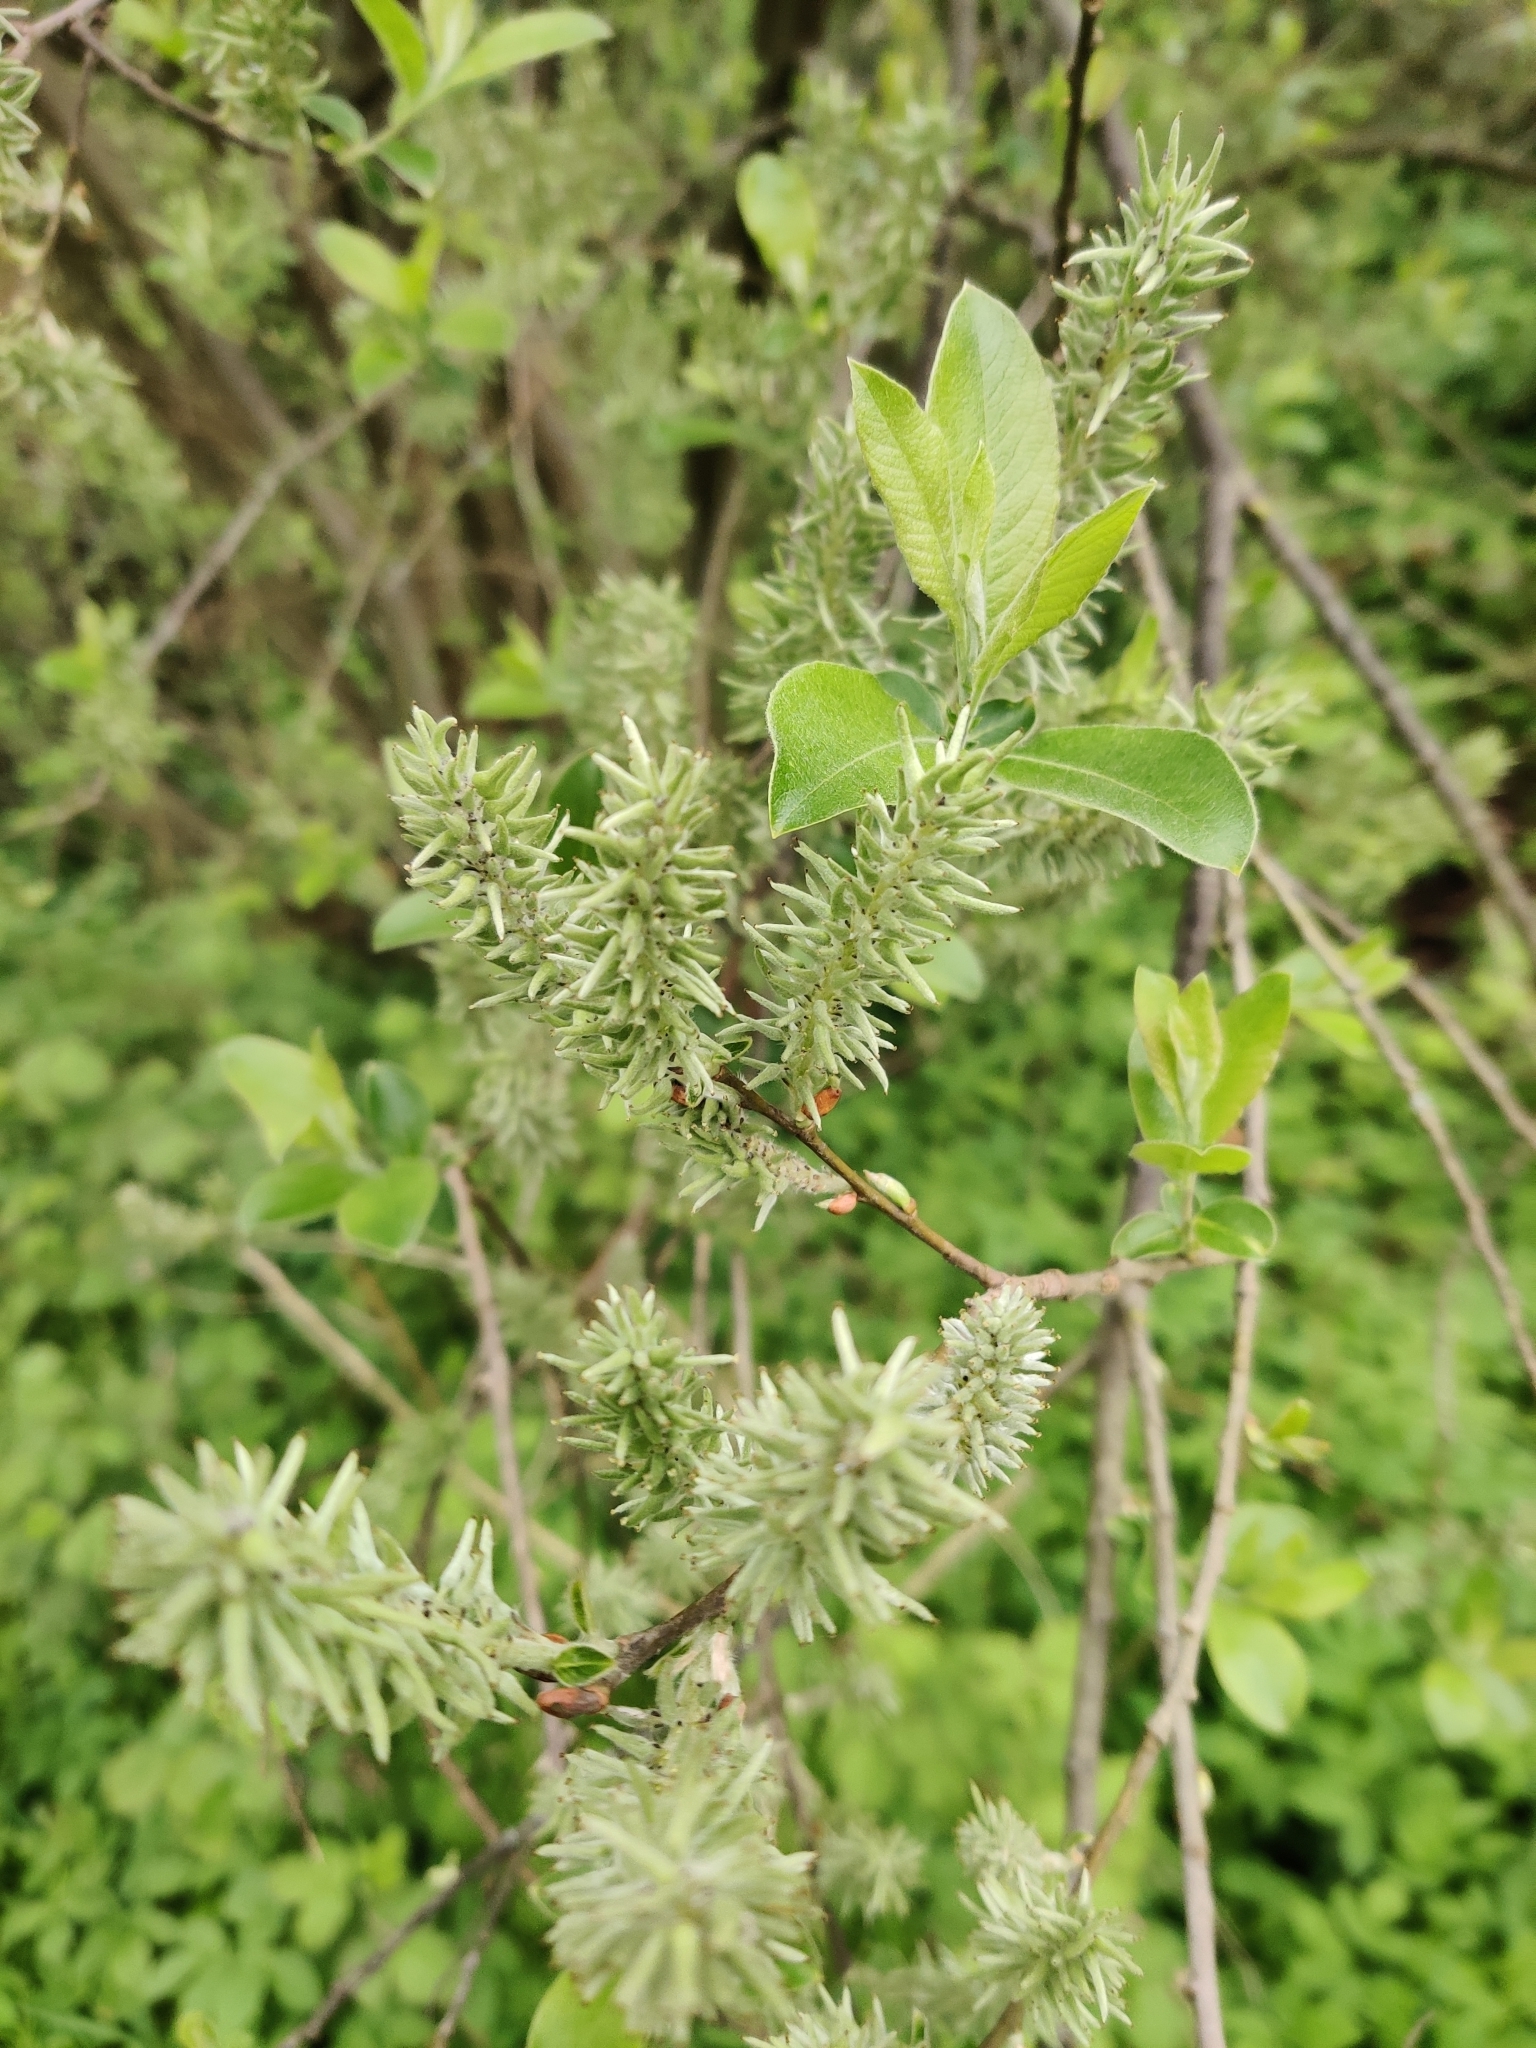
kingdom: Plantae
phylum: Tracheophyta
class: Magnoliopsida
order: Malpighiales
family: Salicaceae
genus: Salix
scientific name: Salix caprea
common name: Goat willow
